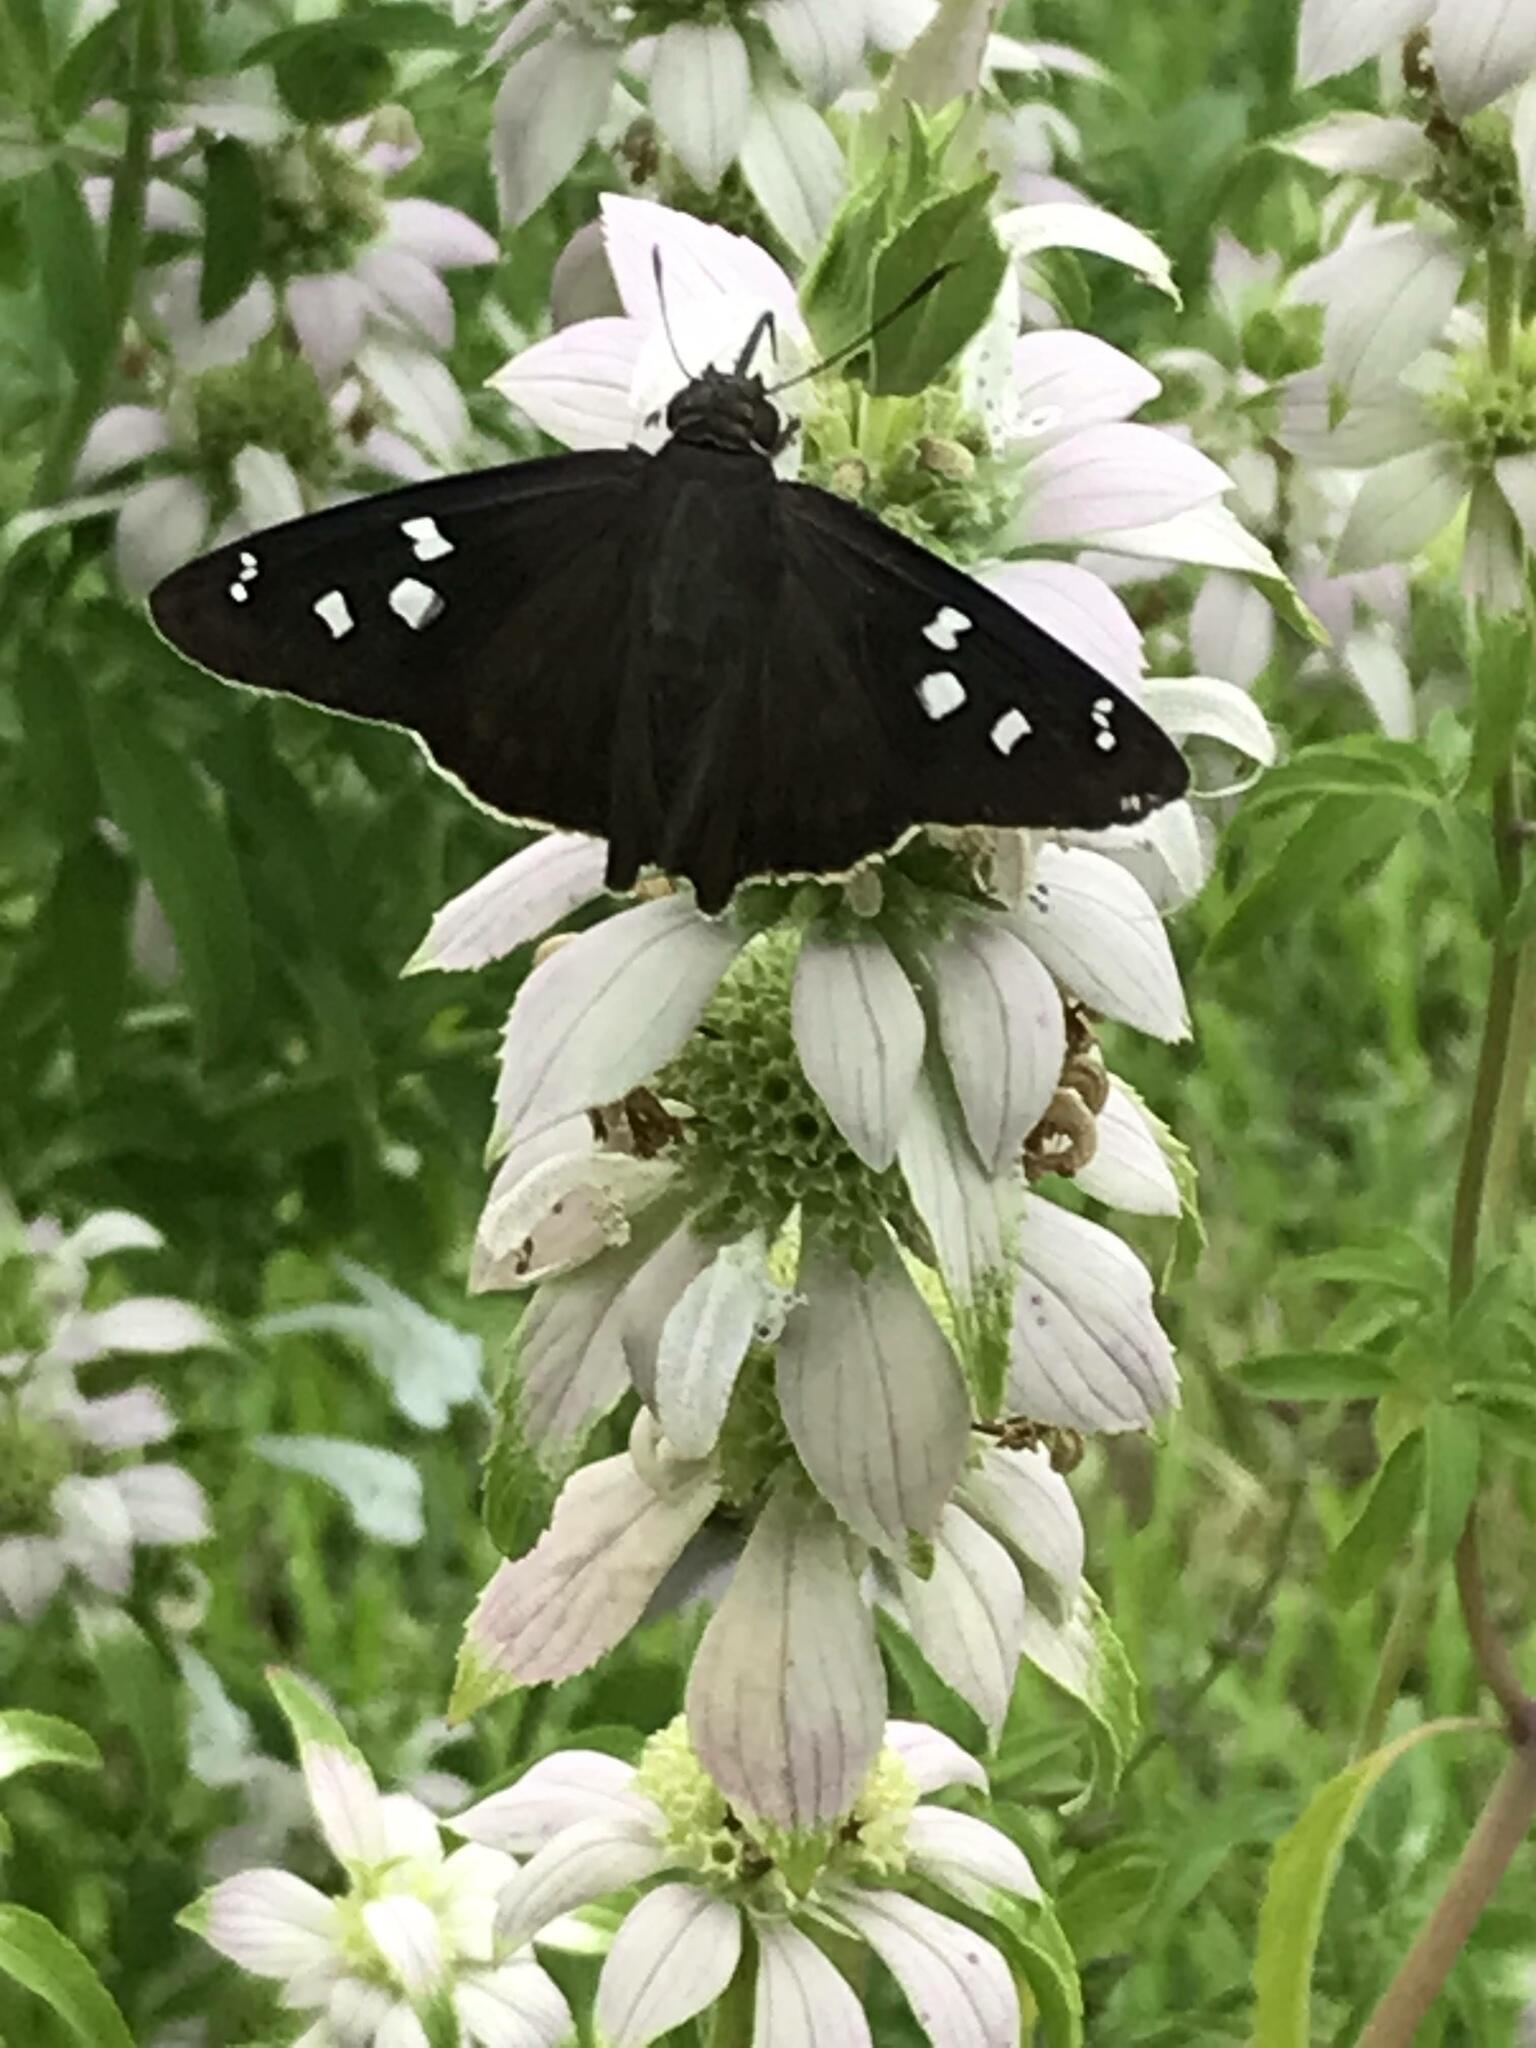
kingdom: Animalia
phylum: Arthropoda
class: Insecta
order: Lepidoptera
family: Hesperiidae
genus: Polygonus
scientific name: Polygonus leo
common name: Hammoch skipper
